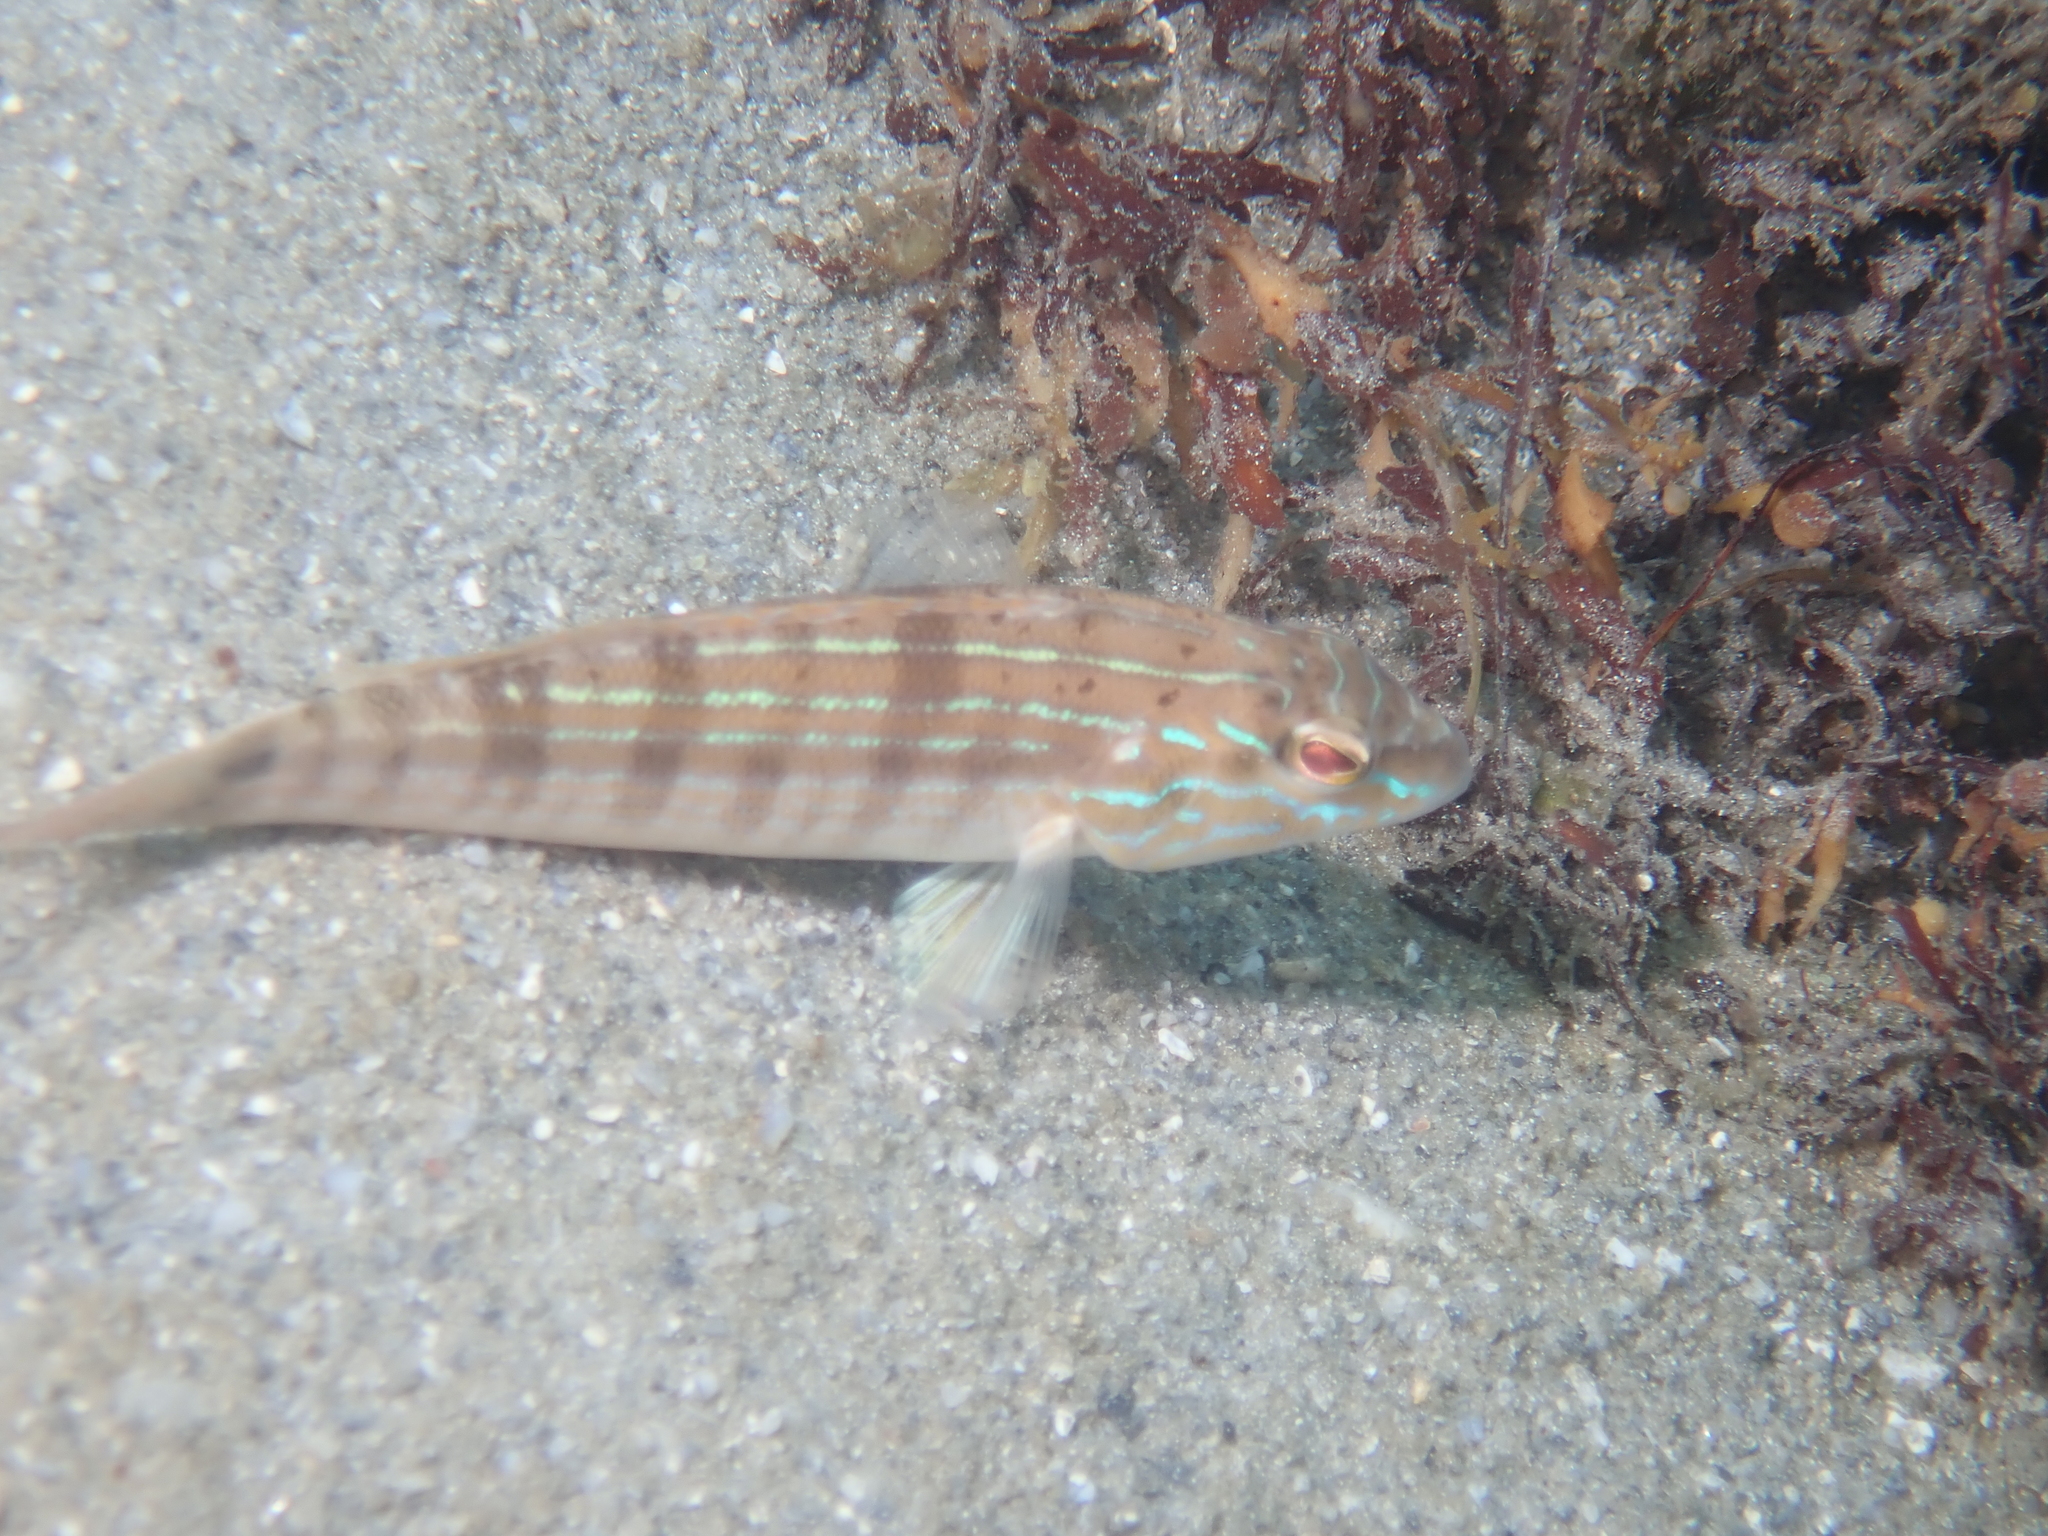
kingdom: Animalia
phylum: Chordata
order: Perciformes
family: Serranidae
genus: Diplectrum
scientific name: Diplectrum formosum
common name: Sand perch
